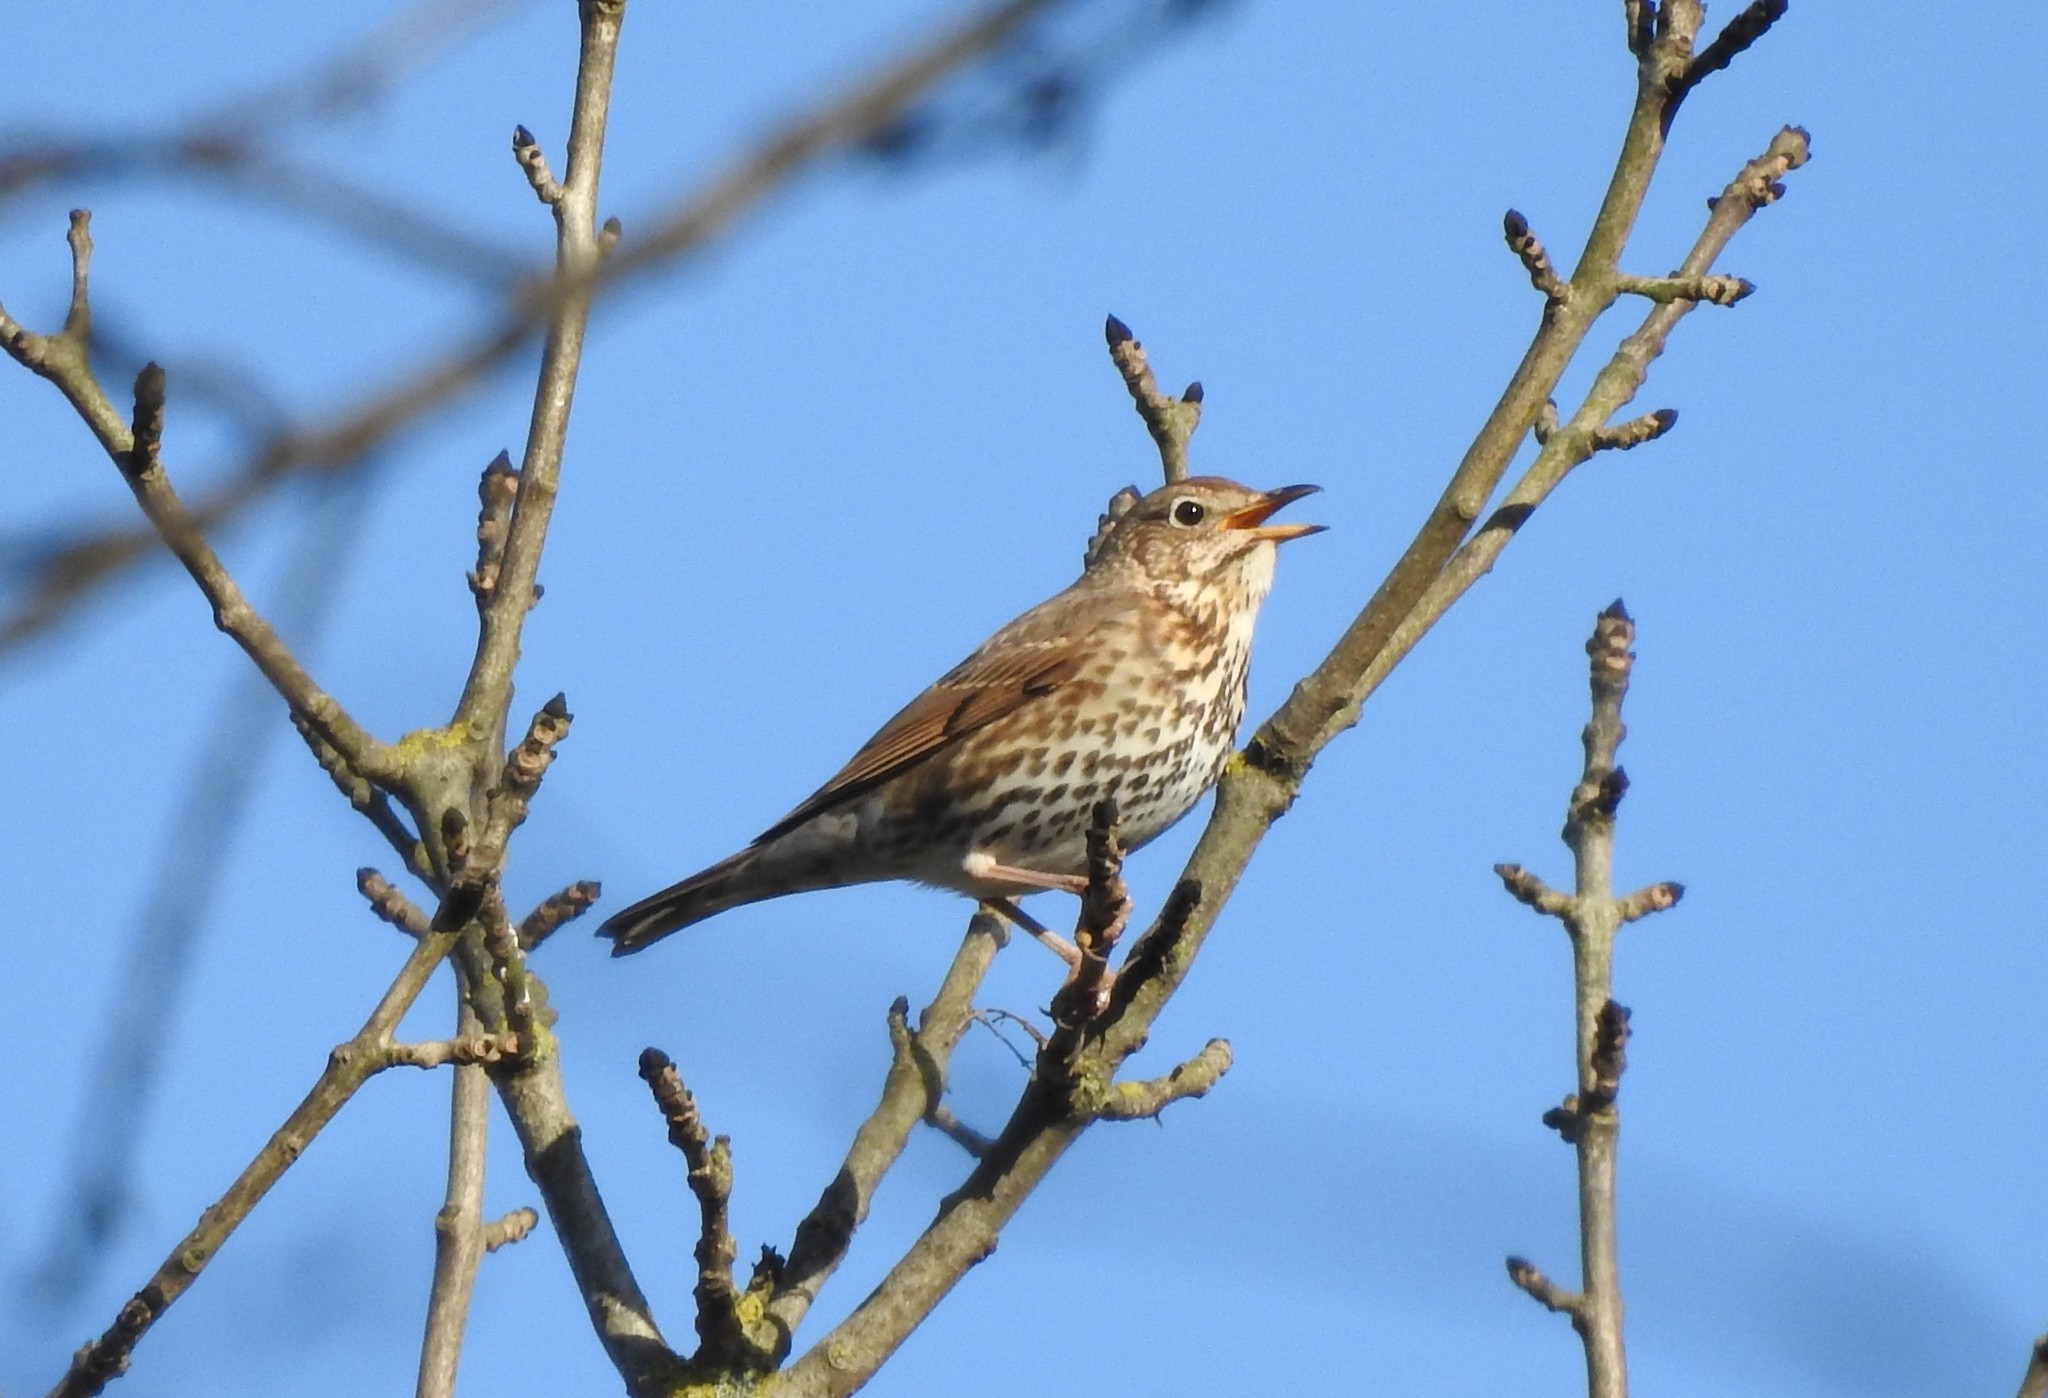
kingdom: Animalia
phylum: Chordata
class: Aves
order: Passeriformes
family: Turdidae
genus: Turdus
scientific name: Turdus philomelos
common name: Song thrush
